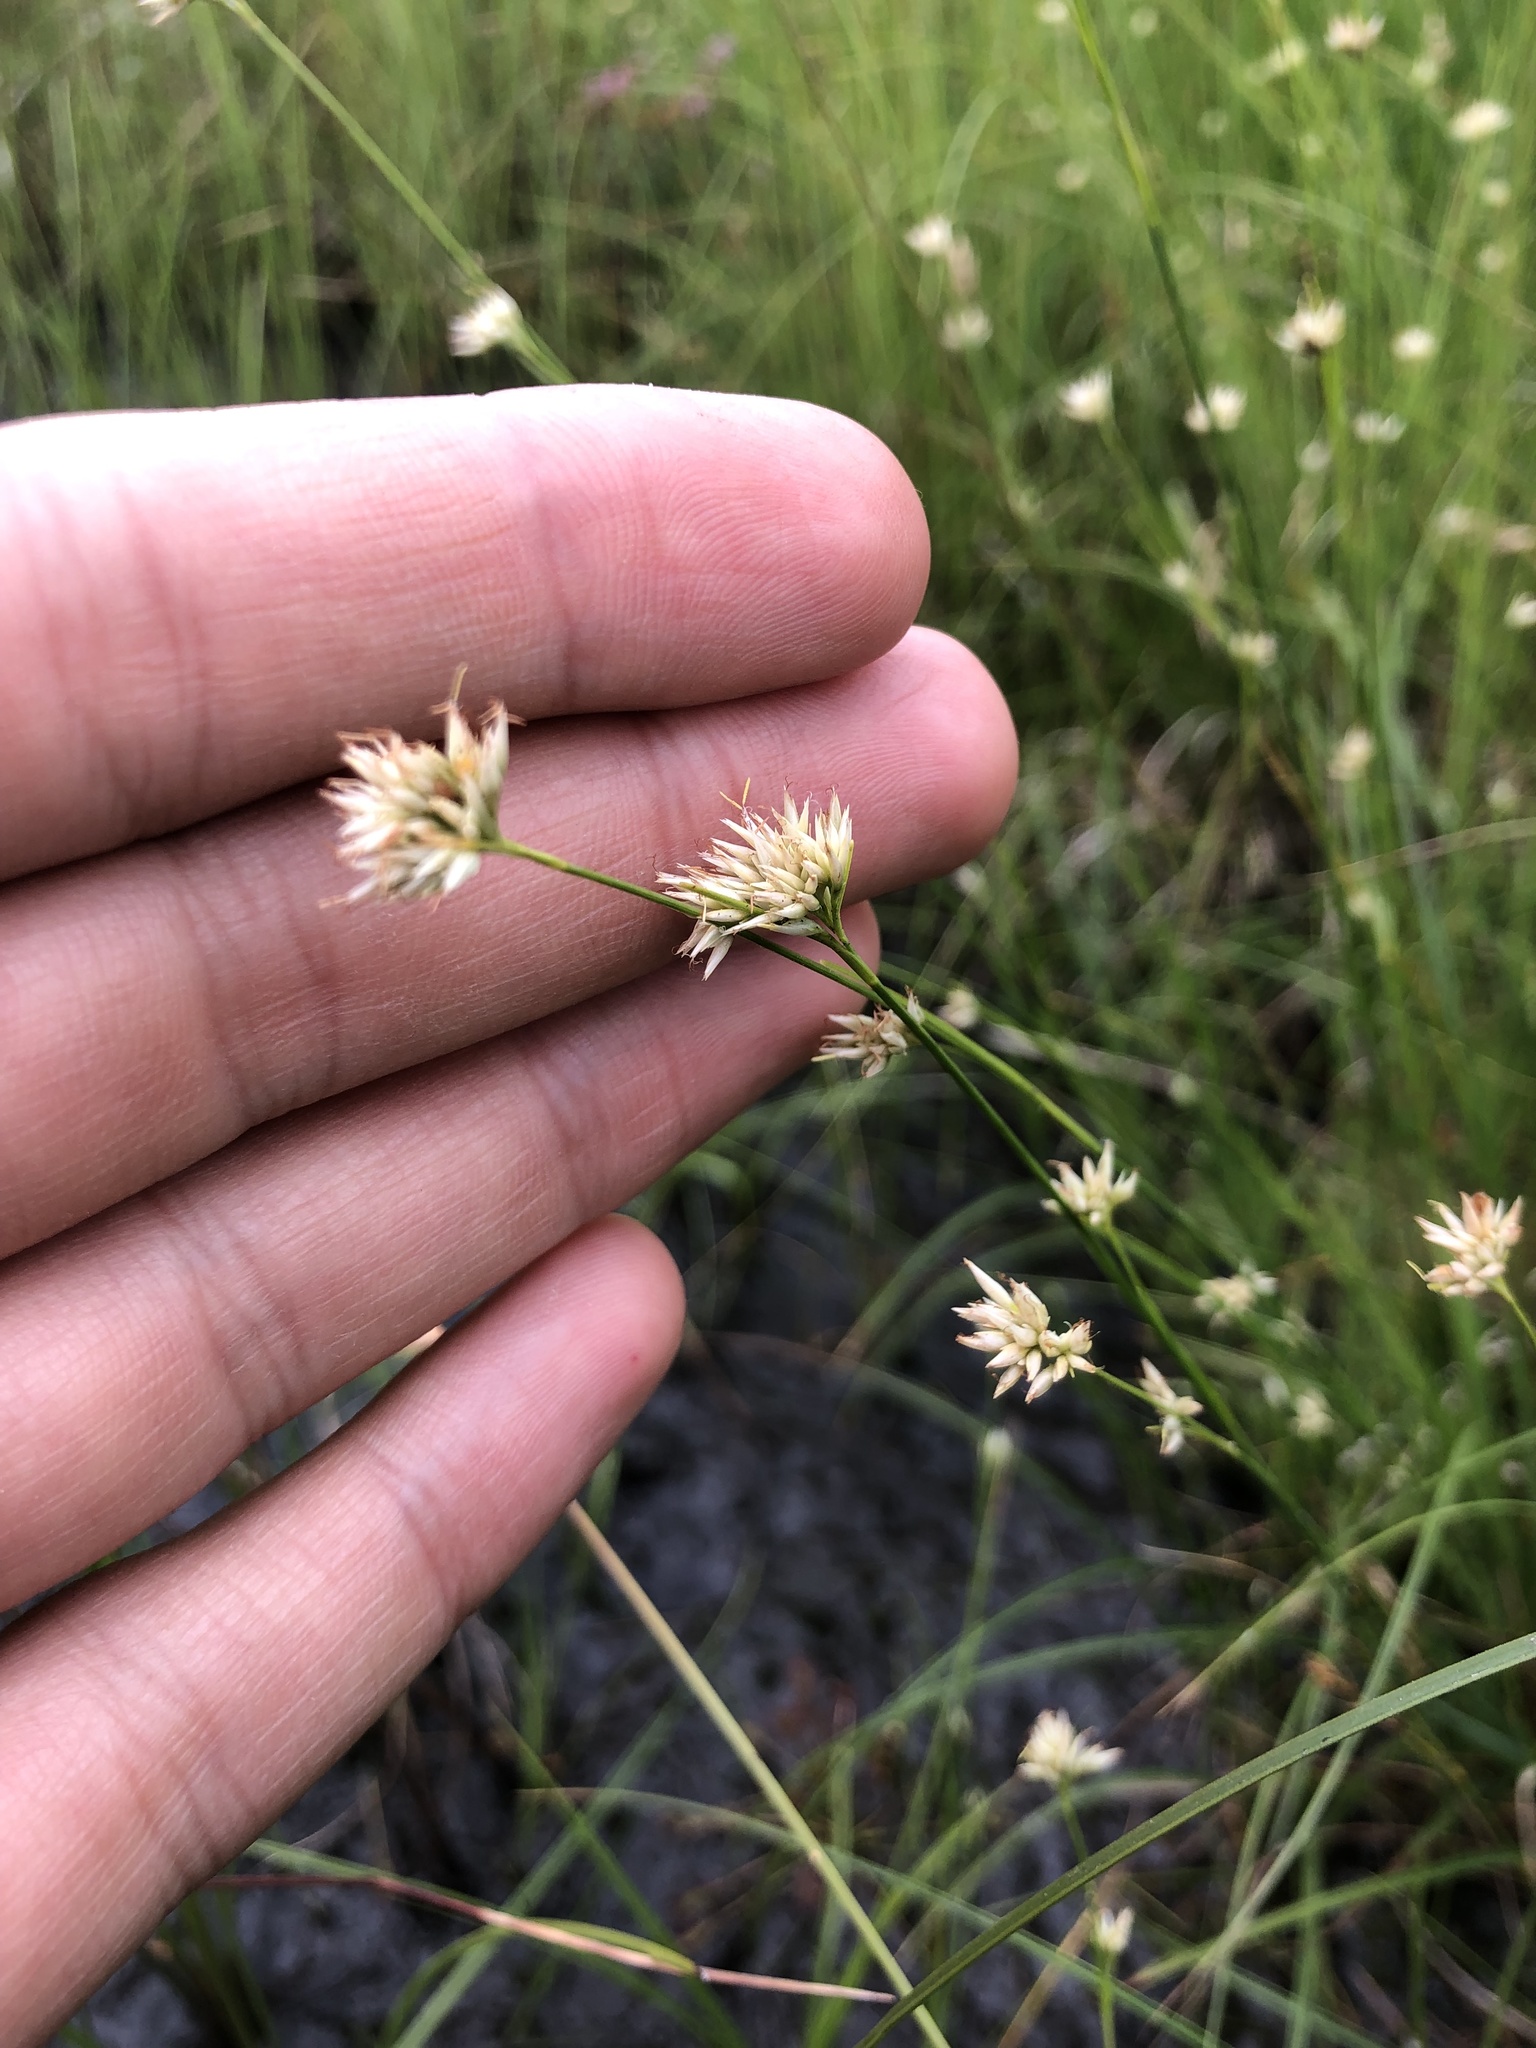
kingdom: Plantae
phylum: Tracheophyta
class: Liliopsida
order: Poales
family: Cyperaceae
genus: Rhynchospora
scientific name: Rhynchospora alba
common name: White beak-sedge
